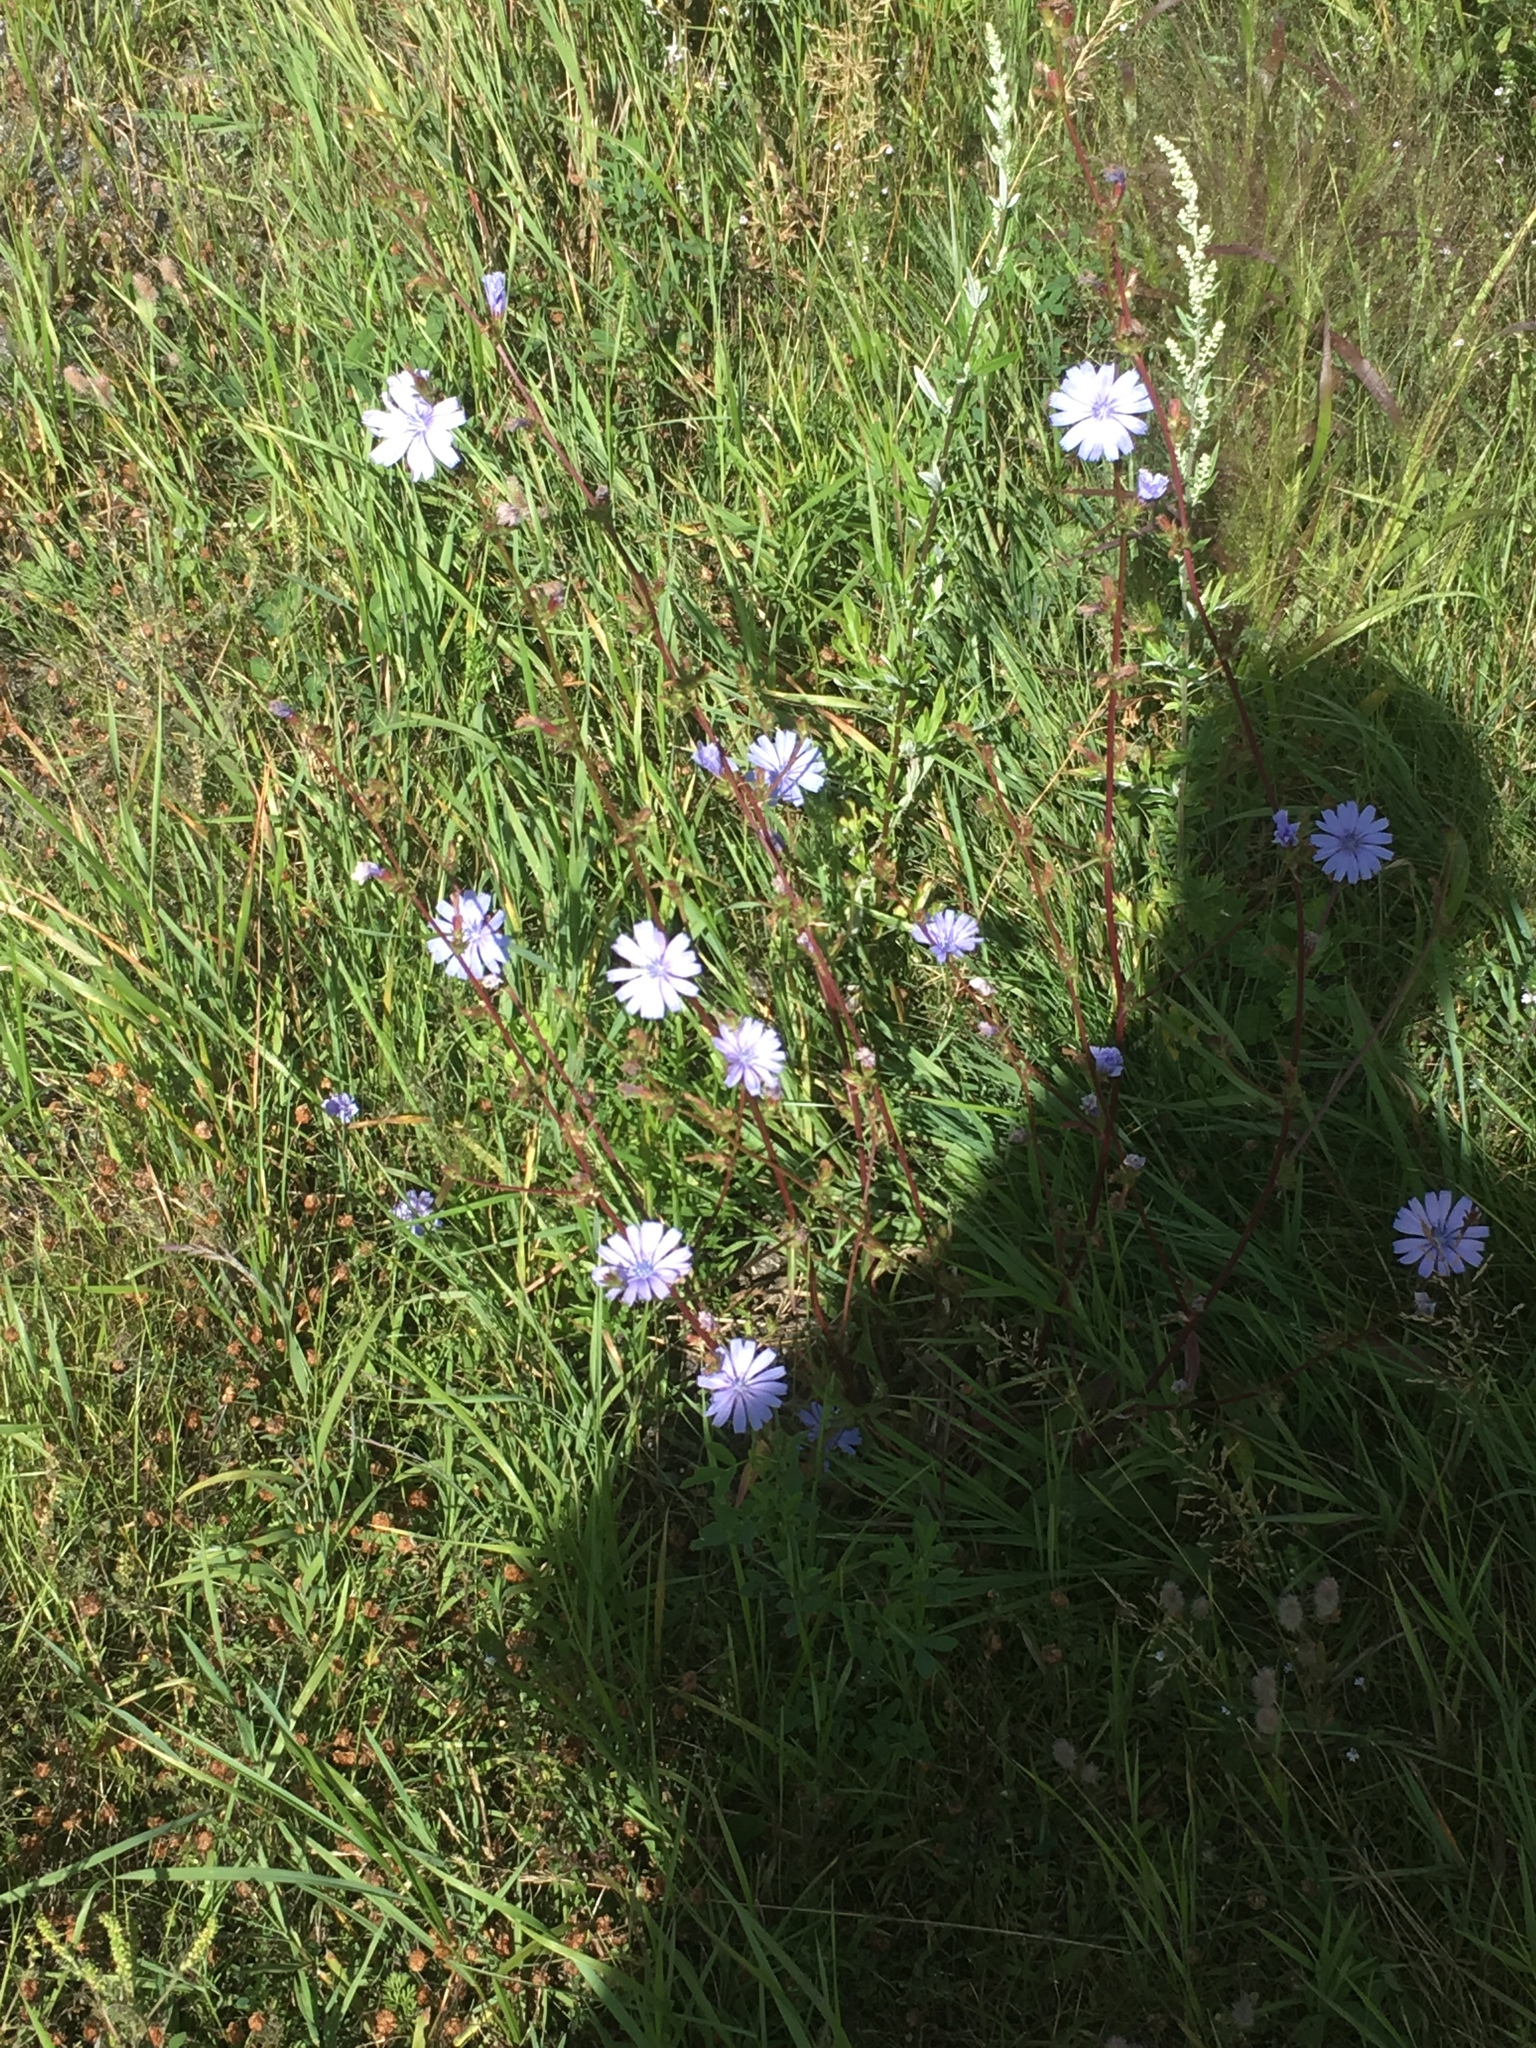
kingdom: Plantae
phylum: Tracheophyta
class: Magnoliopsida
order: Asterales
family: Asteraceae
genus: Cichorium
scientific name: Cichorium intybus
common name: Chicory
